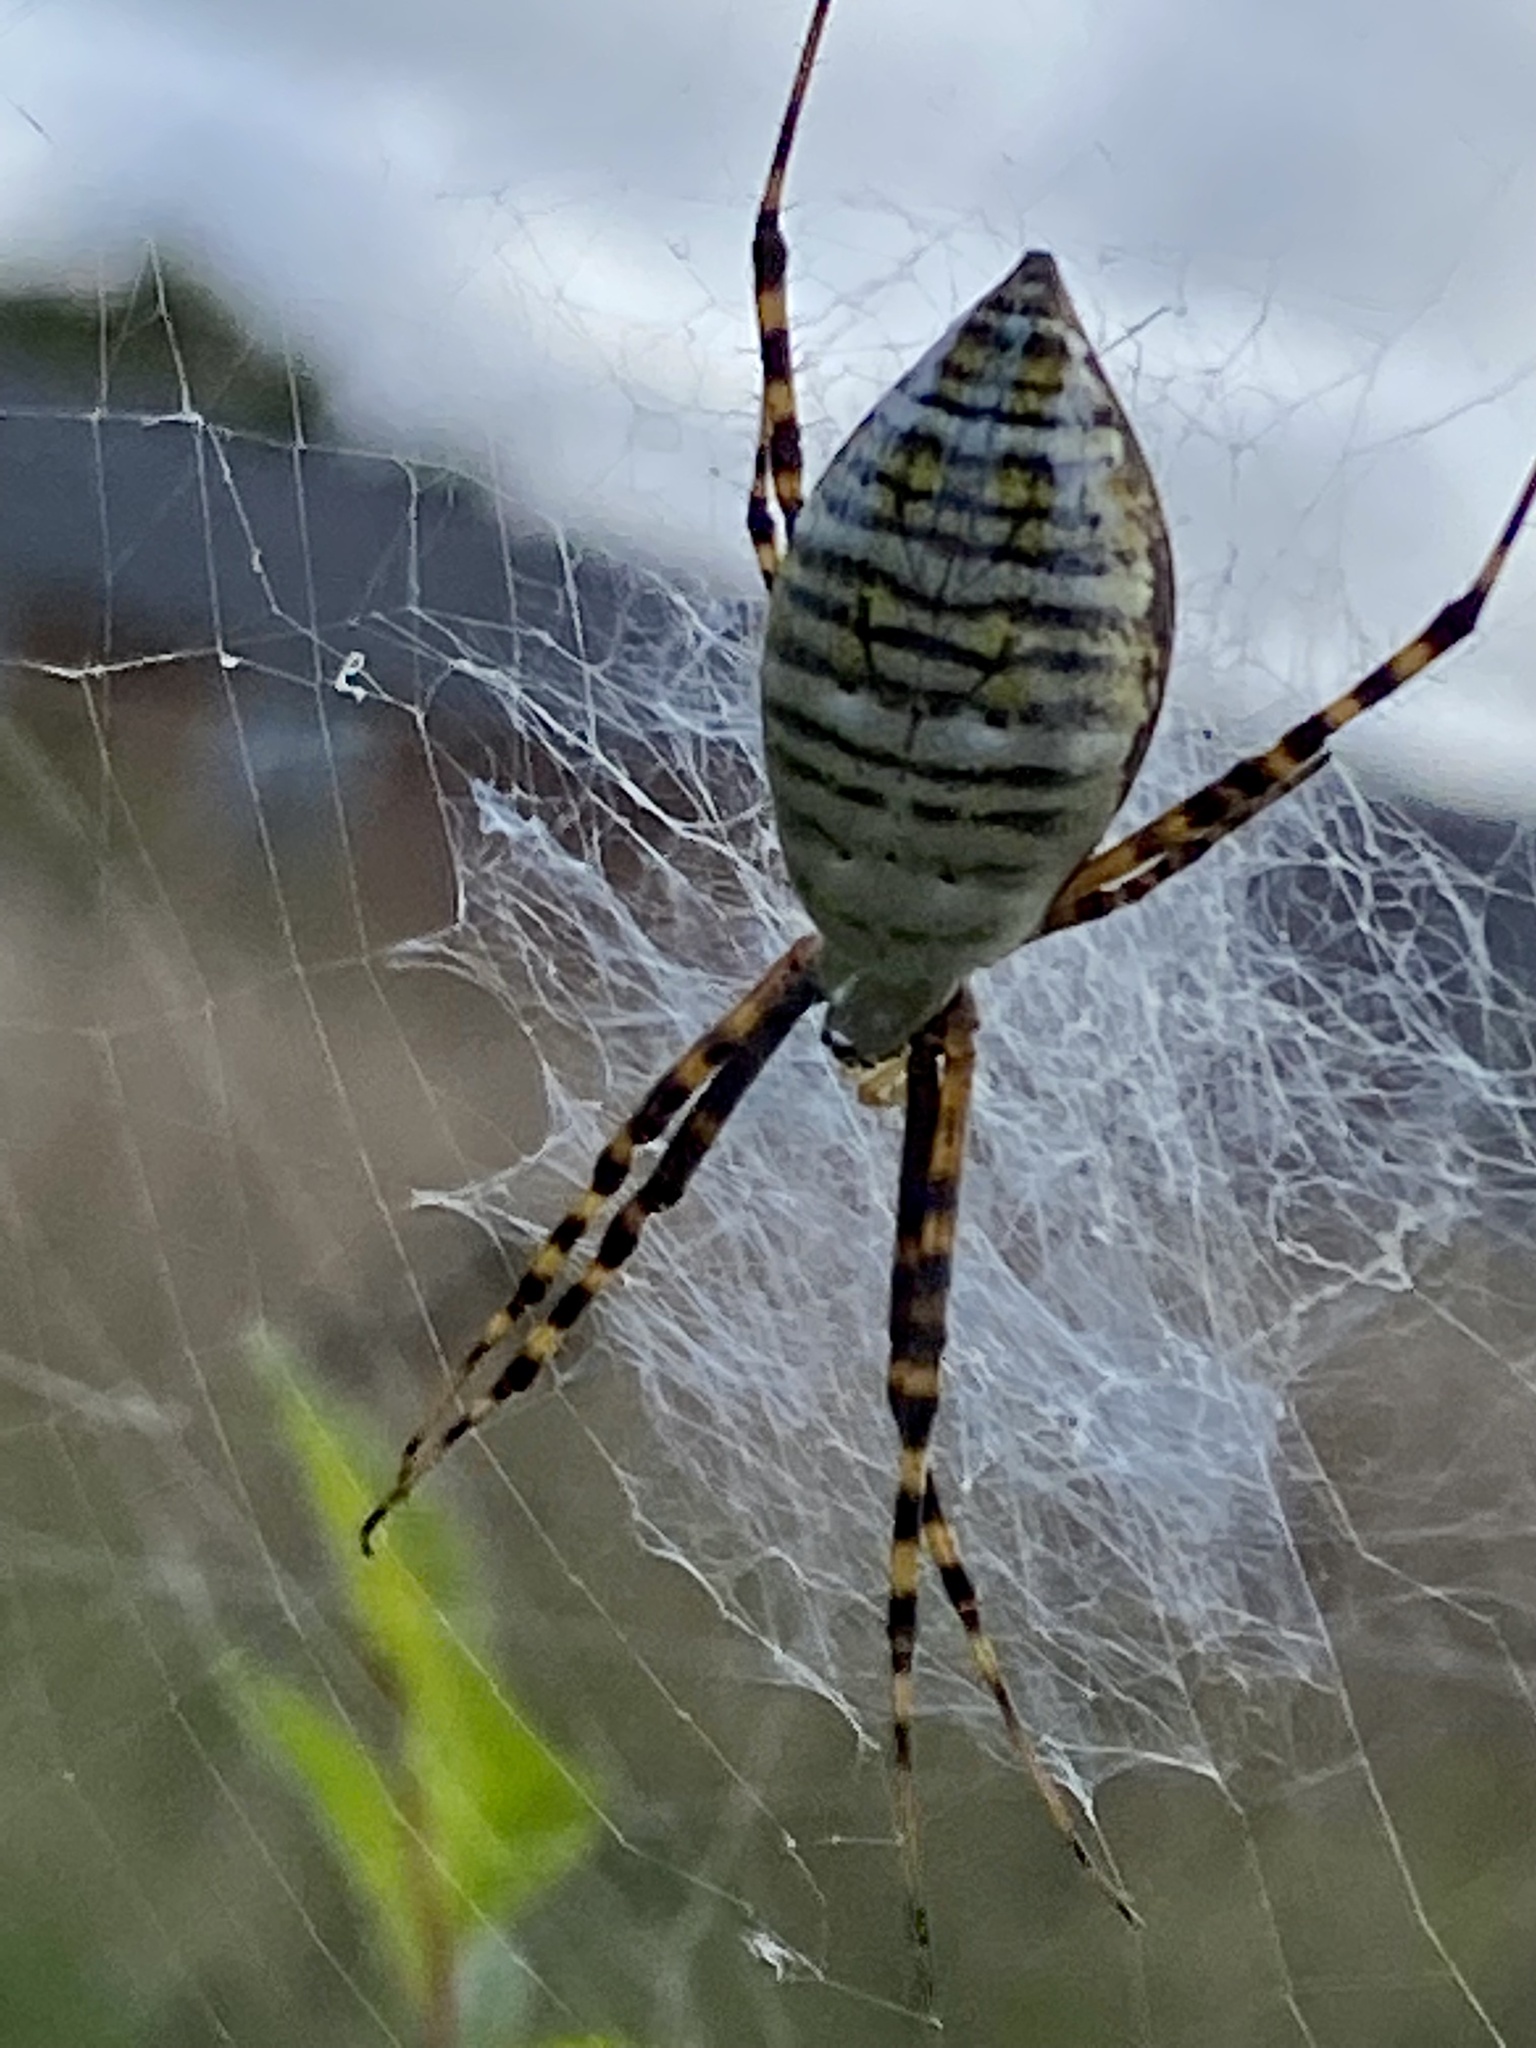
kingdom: Animalia
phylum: Arthropoda
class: Arachnida
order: Araneae
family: Araneidae
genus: Argiope
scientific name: Argiope trifasciata
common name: Banded garden spider
